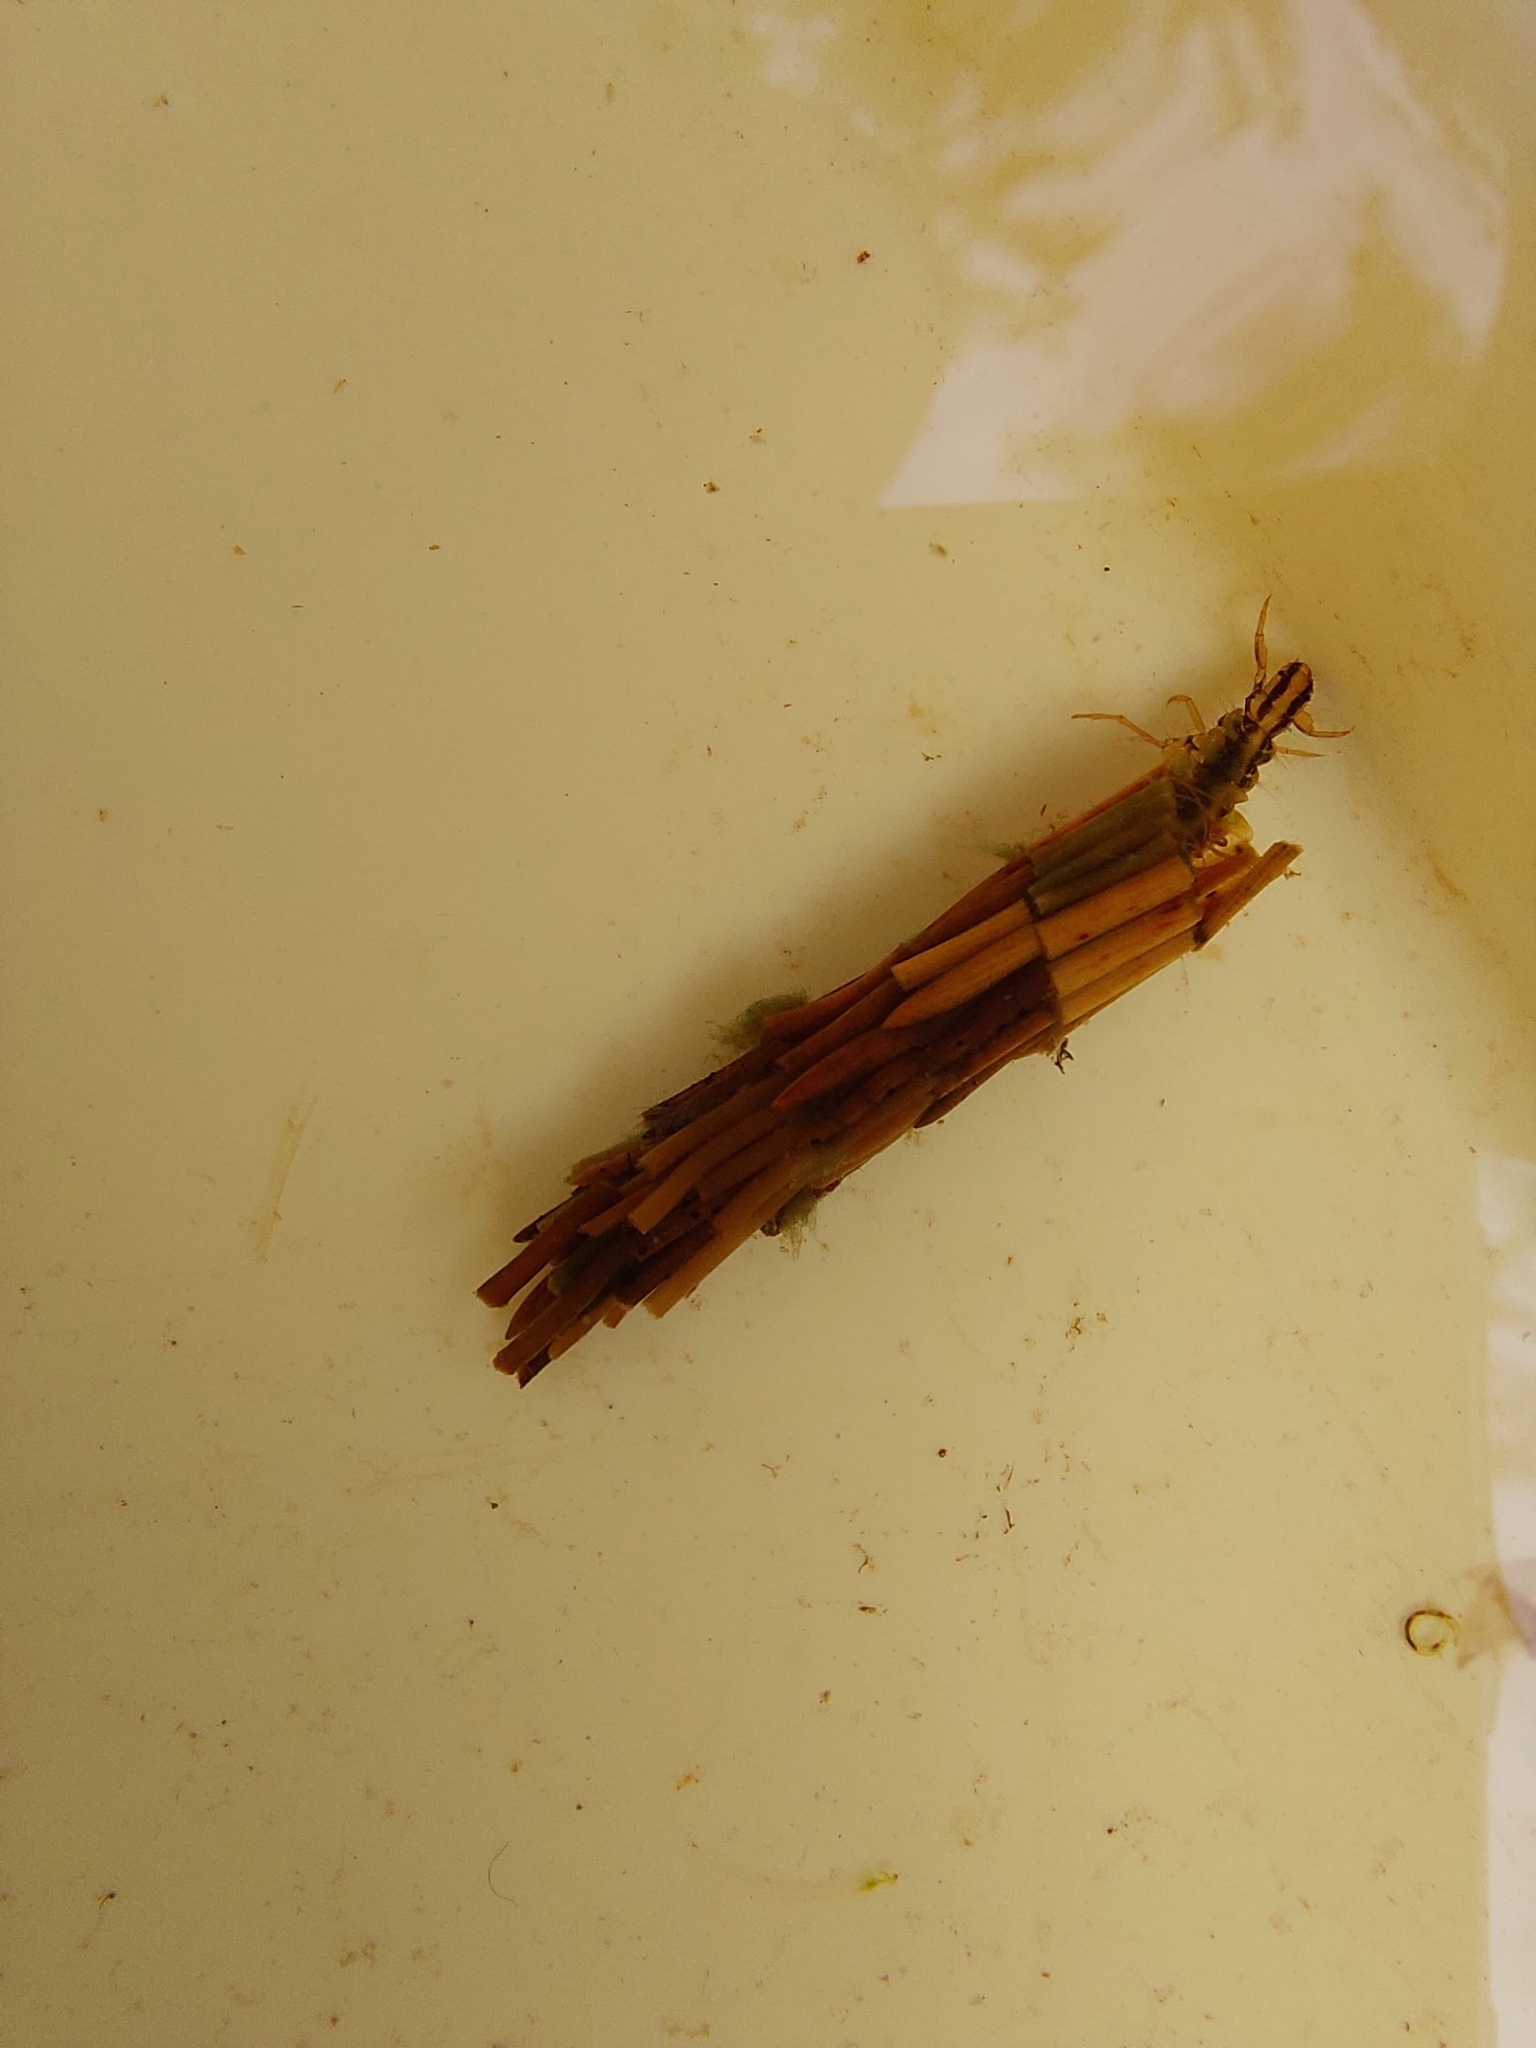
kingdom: Animalia
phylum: Arthropoda
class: Insecta
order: Trichoptera
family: Phryganeidae
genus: Oligotricha
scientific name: Oligotricha striata
